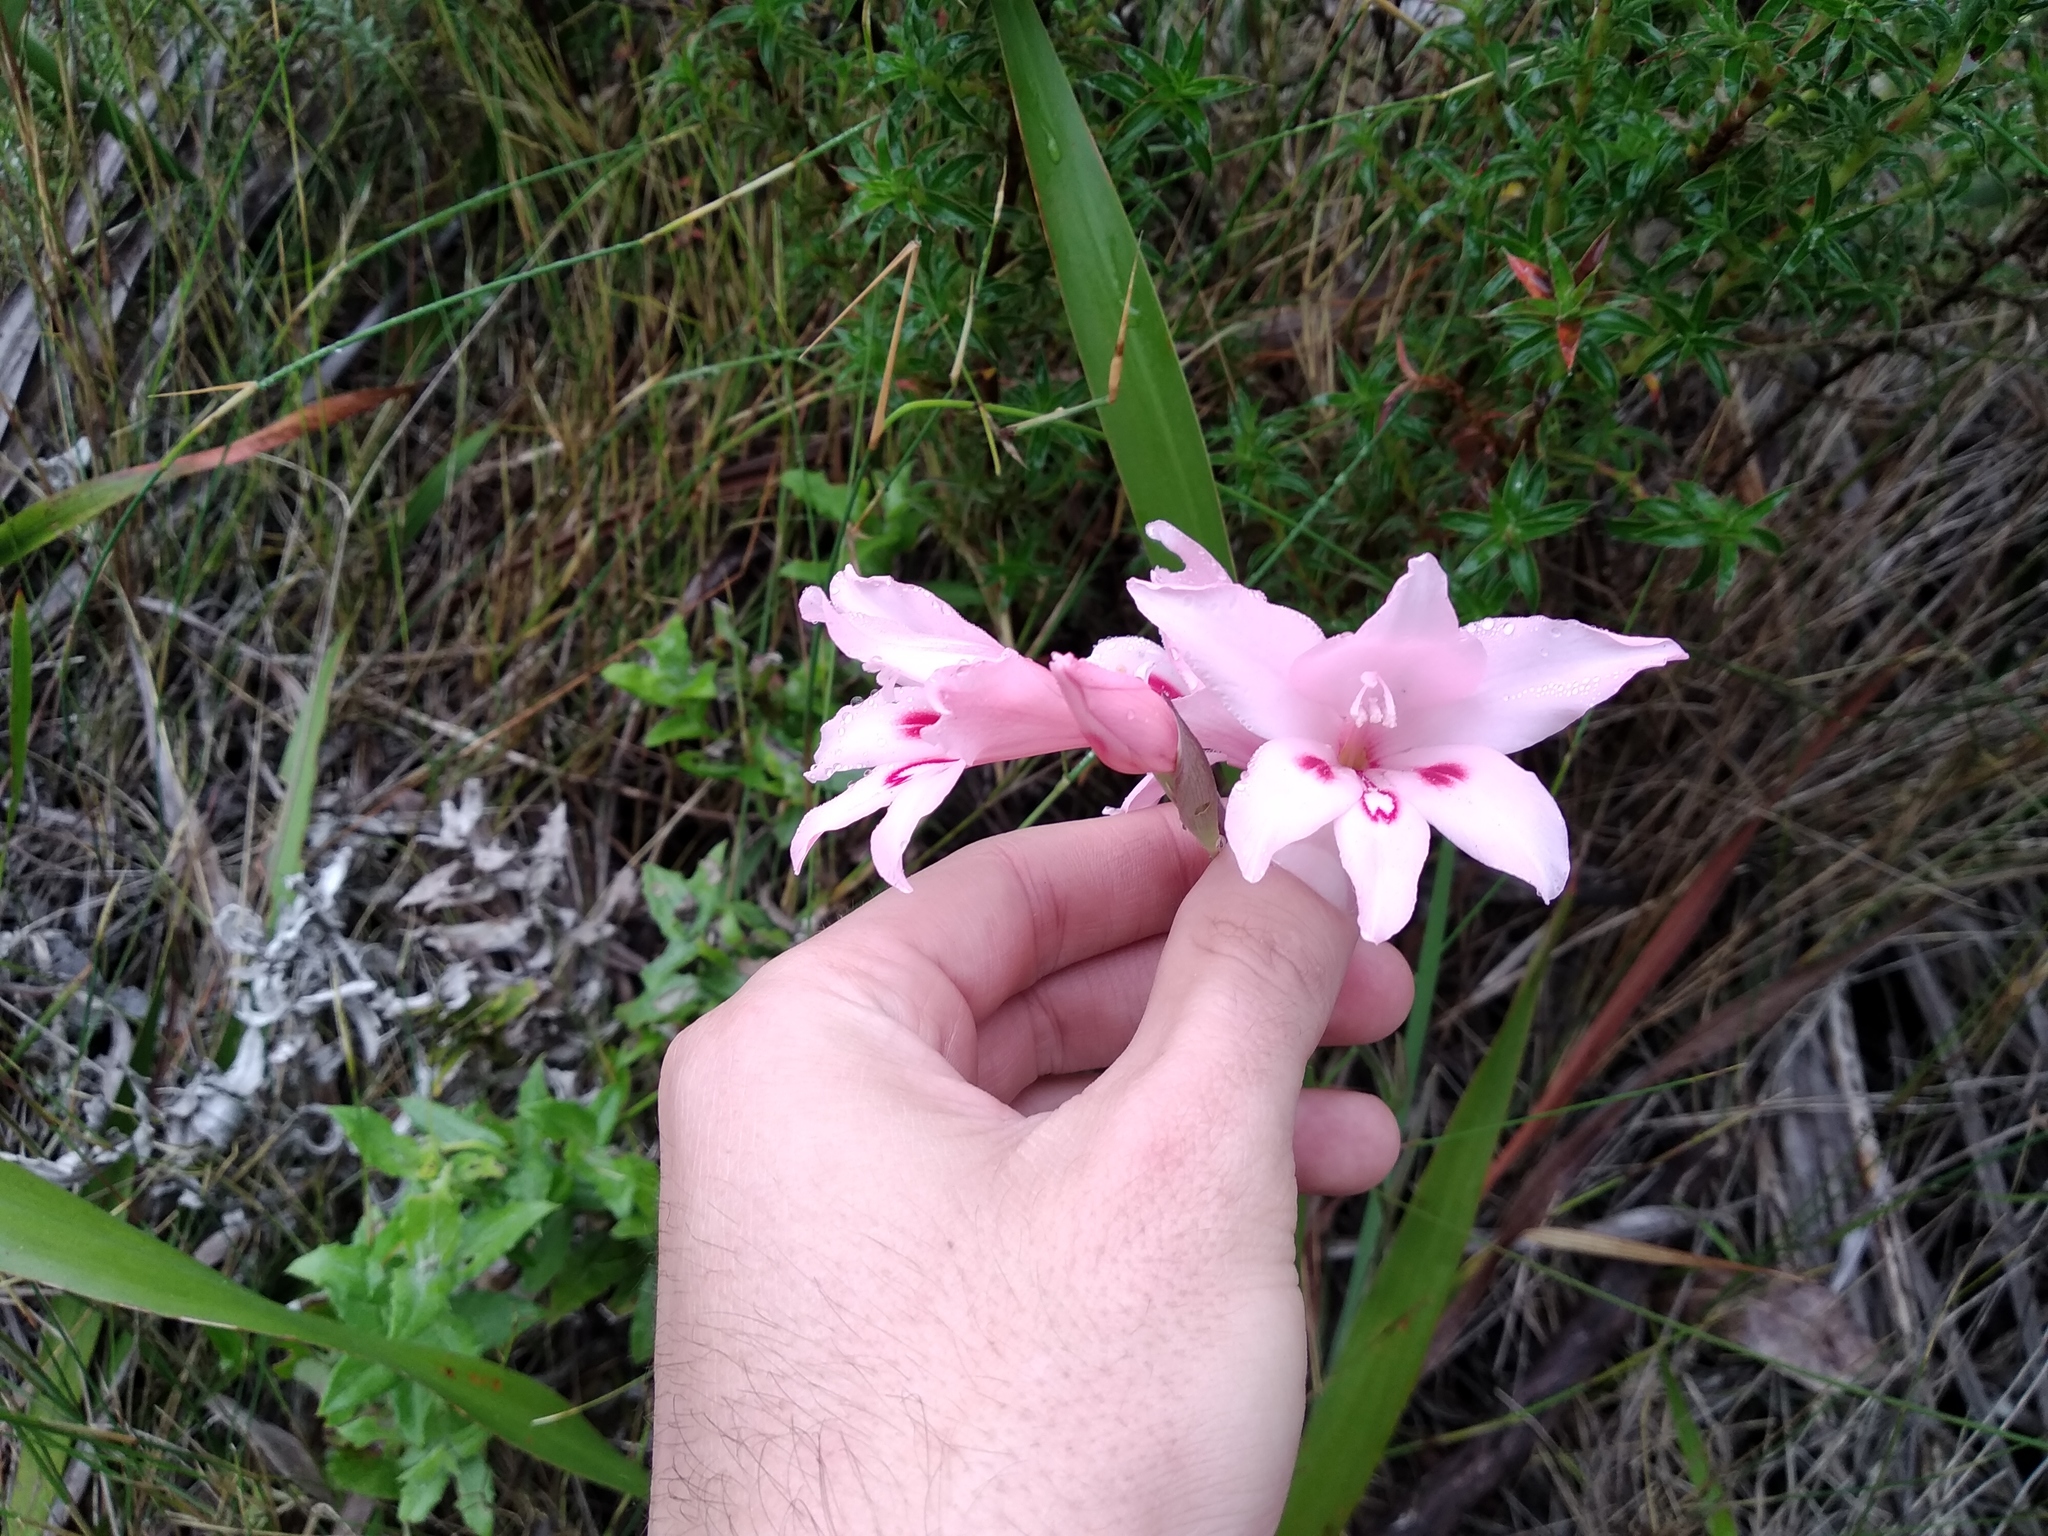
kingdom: Plantae
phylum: Tracheophyta
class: Liliopsida
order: Asparagales
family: Iridaceae
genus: Gladiolus
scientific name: Gladiolus pappei
